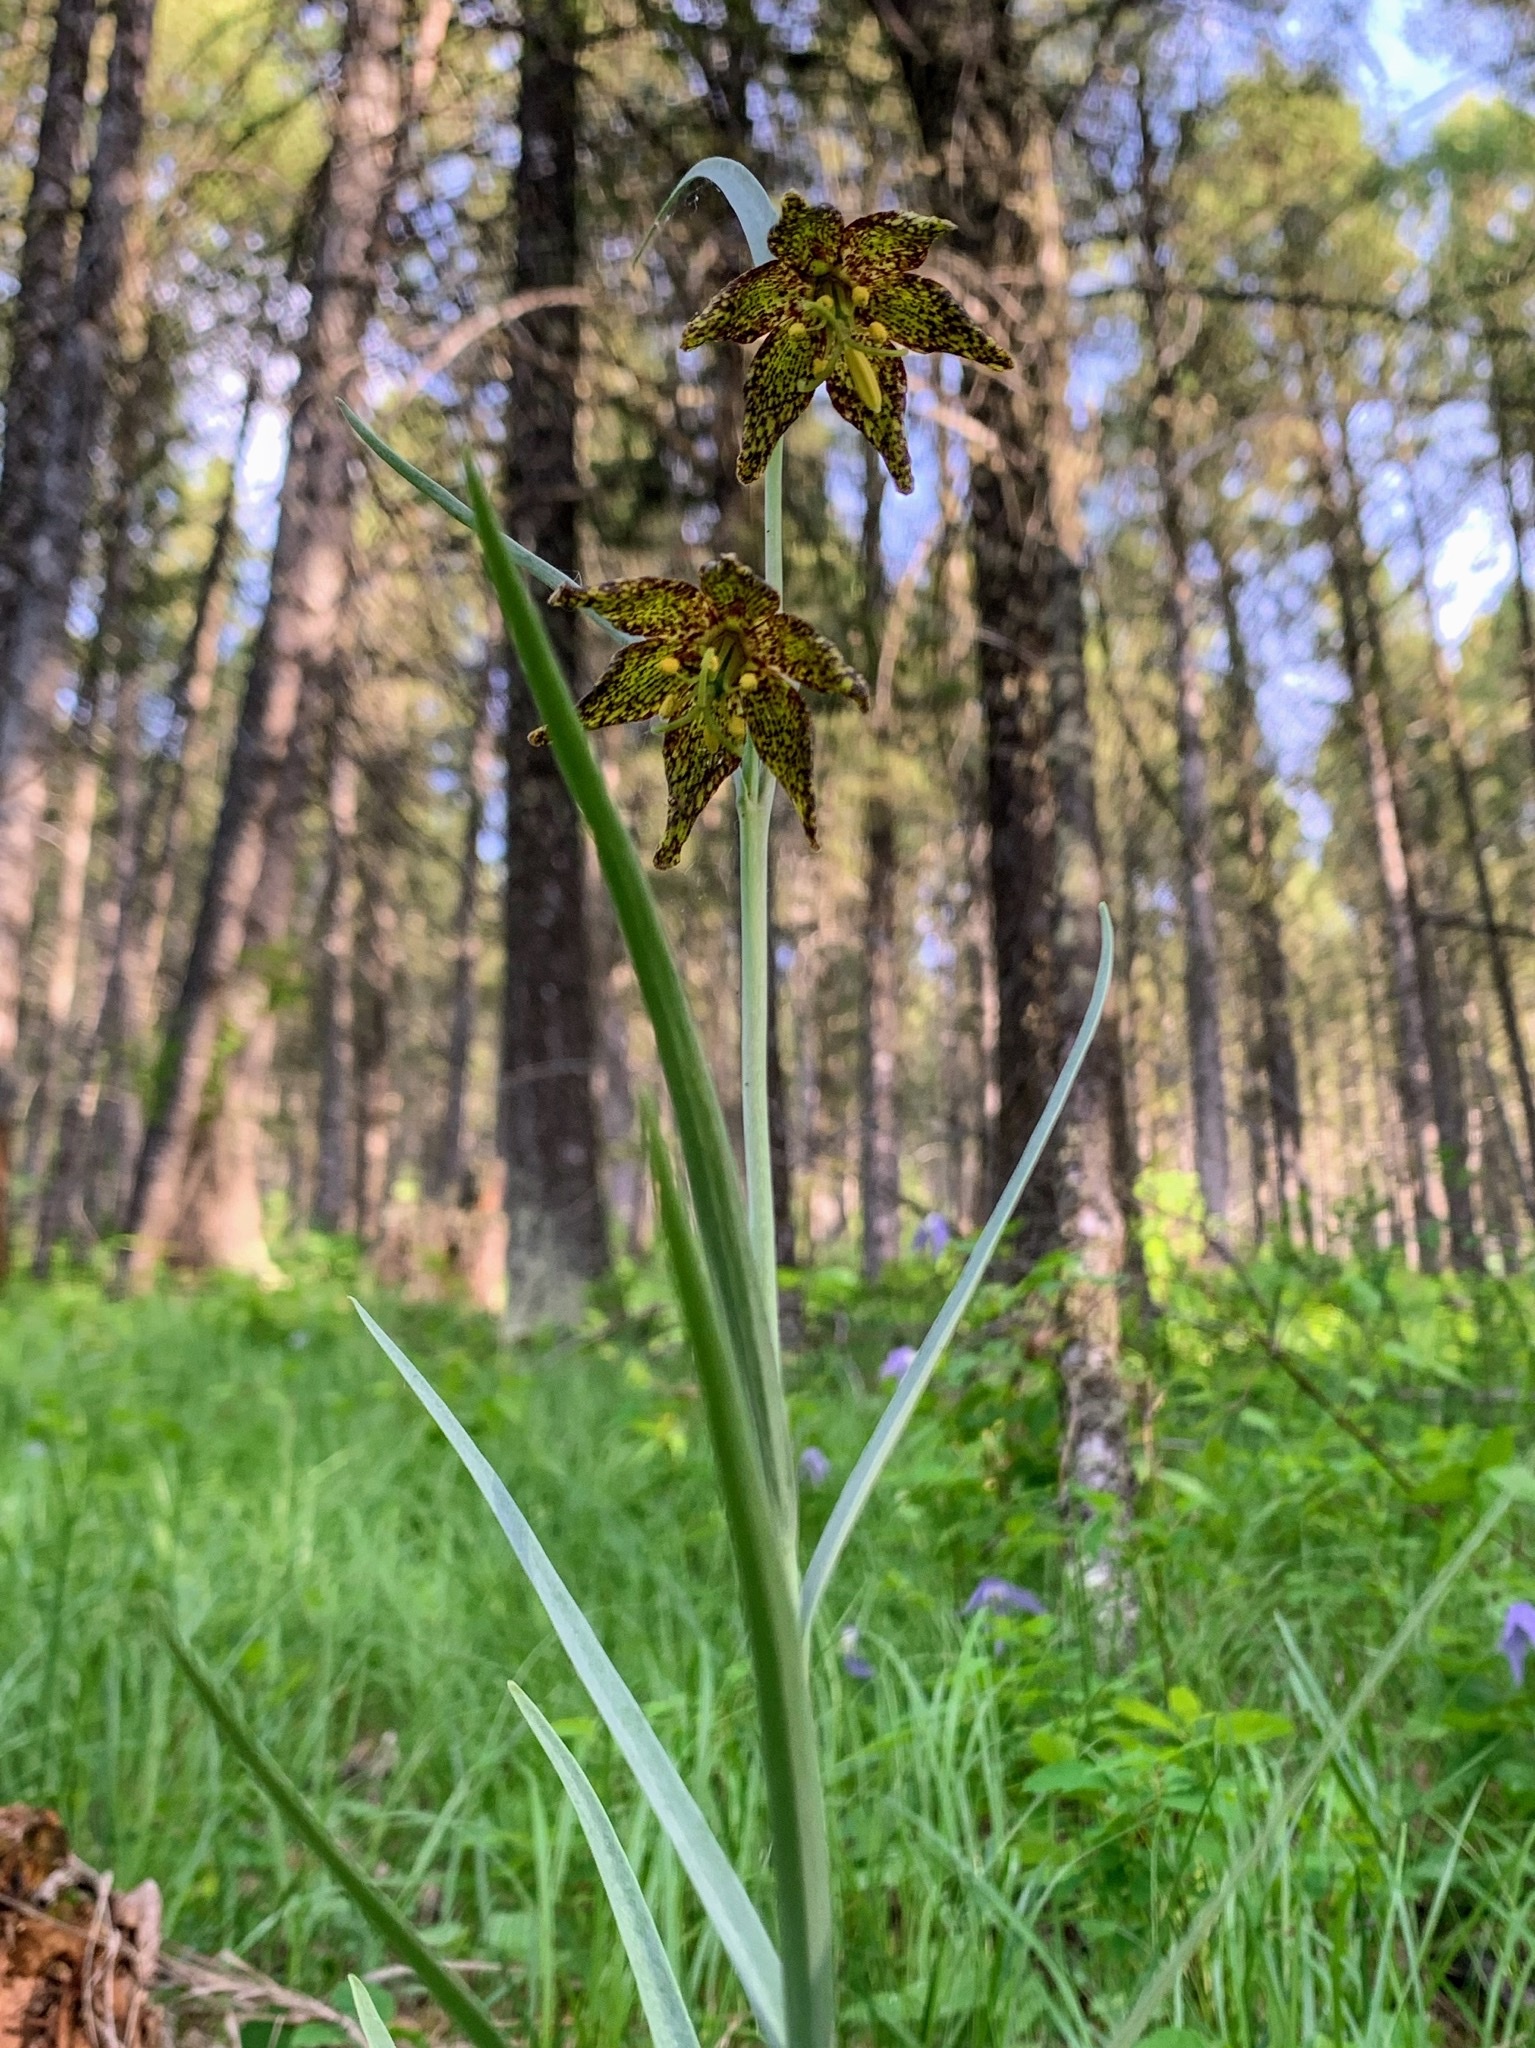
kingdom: Plantae
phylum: Tracheophyta
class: Liliopsida
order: Liliales
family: Liliaceae
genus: Fritillaria
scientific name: Fritillaria atropurpurea
